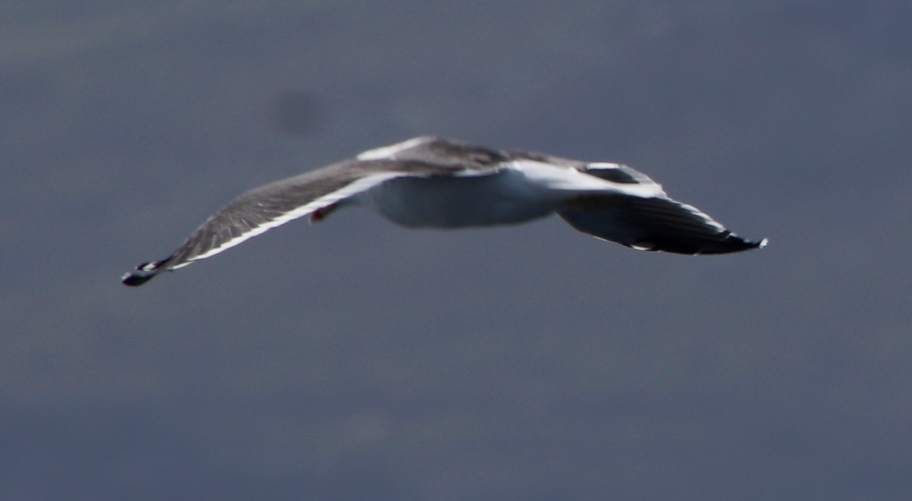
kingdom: Animalia
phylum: Chordata
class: Aves
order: Charadriiformes
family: Laridae
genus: Larus
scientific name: Larus dominicanus
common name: Kelp gull
